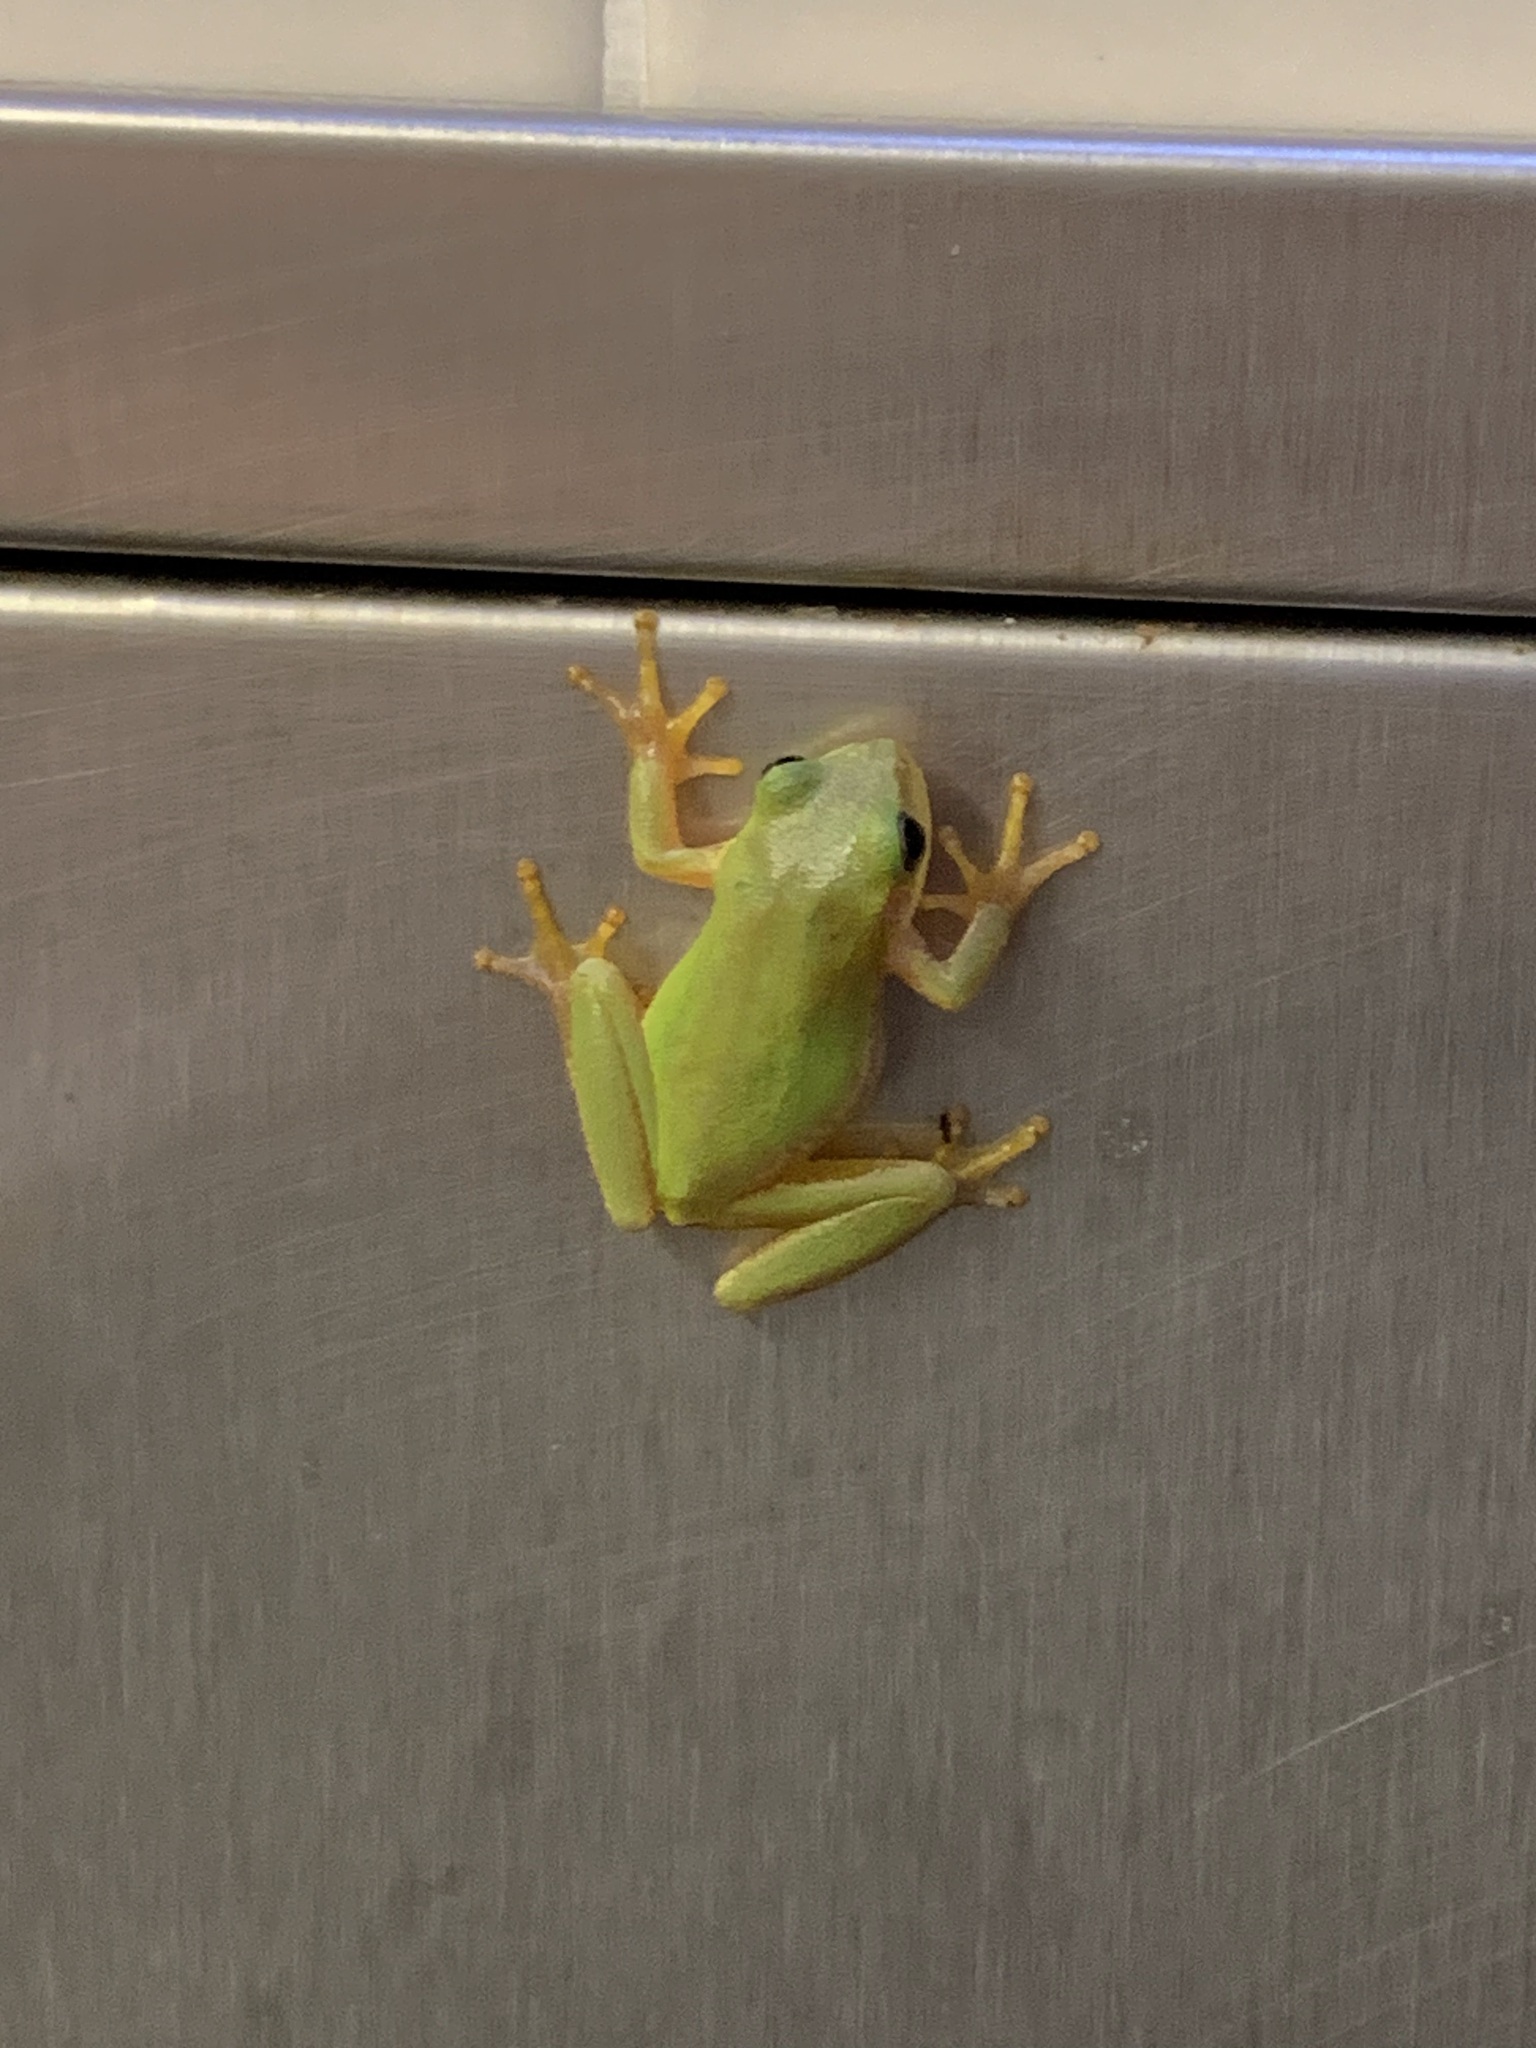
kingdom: Animalia
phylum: Chordata
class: Amphibia
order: Anura
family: Hylidae
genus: Dryophytes
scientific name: Dryophytes squirellus
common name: Squirrel treefrog
